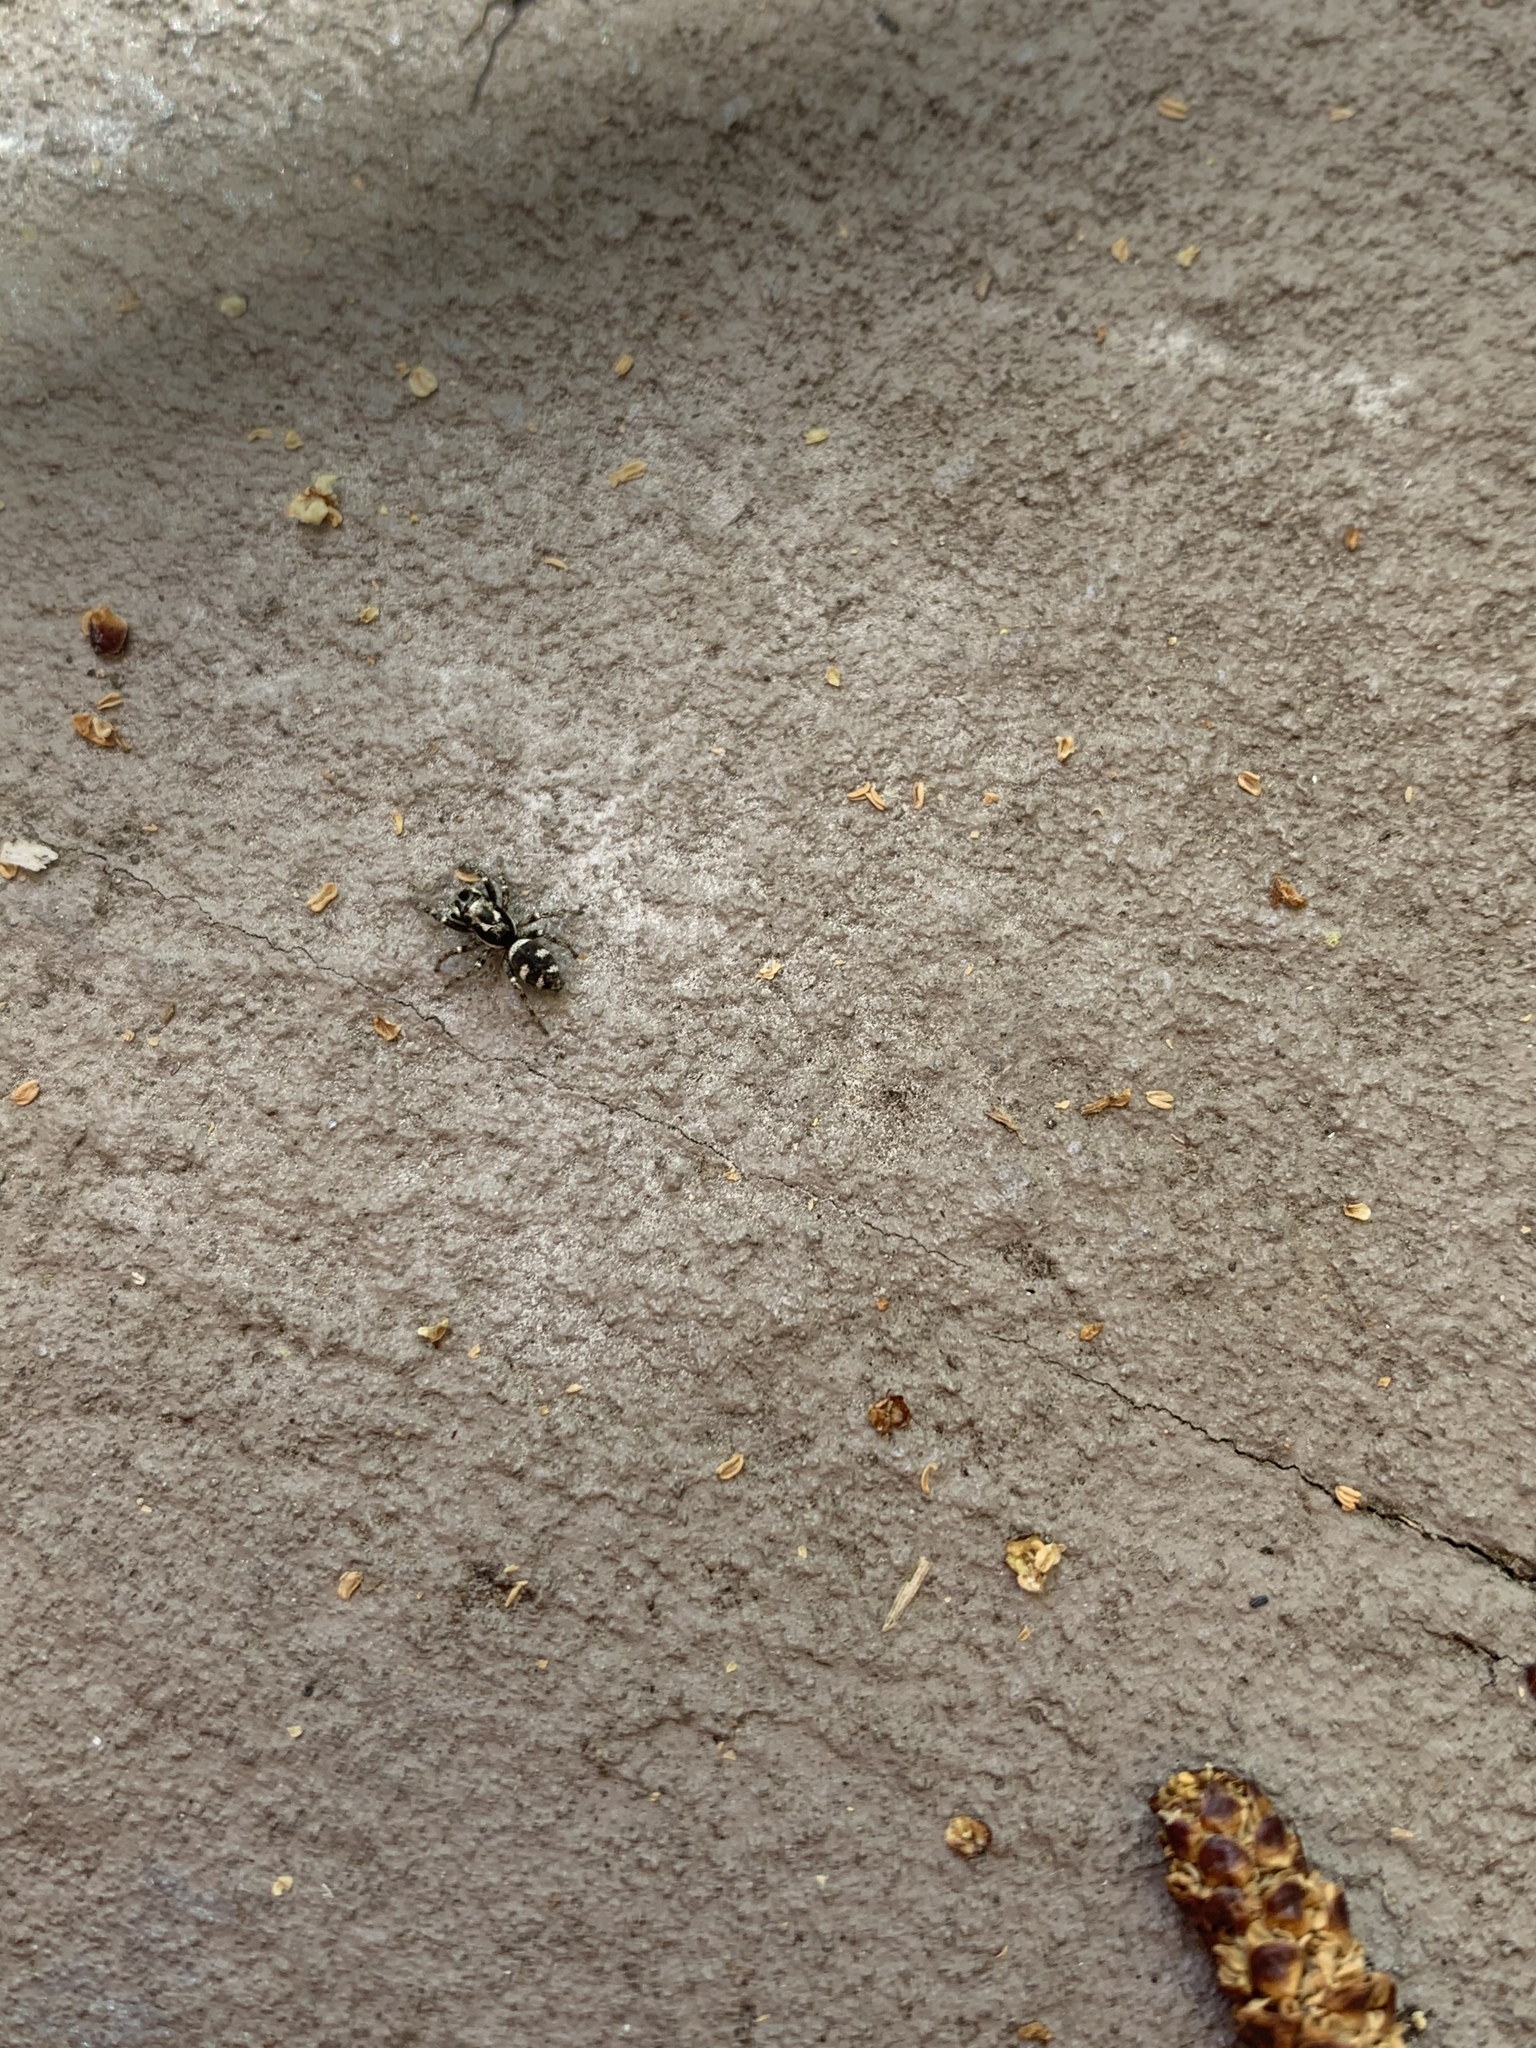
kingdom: Animalia
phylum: Arthropoda
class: Arachnida
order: Araneae
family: Salticidae
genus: Salticus
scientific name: Salticus scenicus
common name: Zebra jumper
